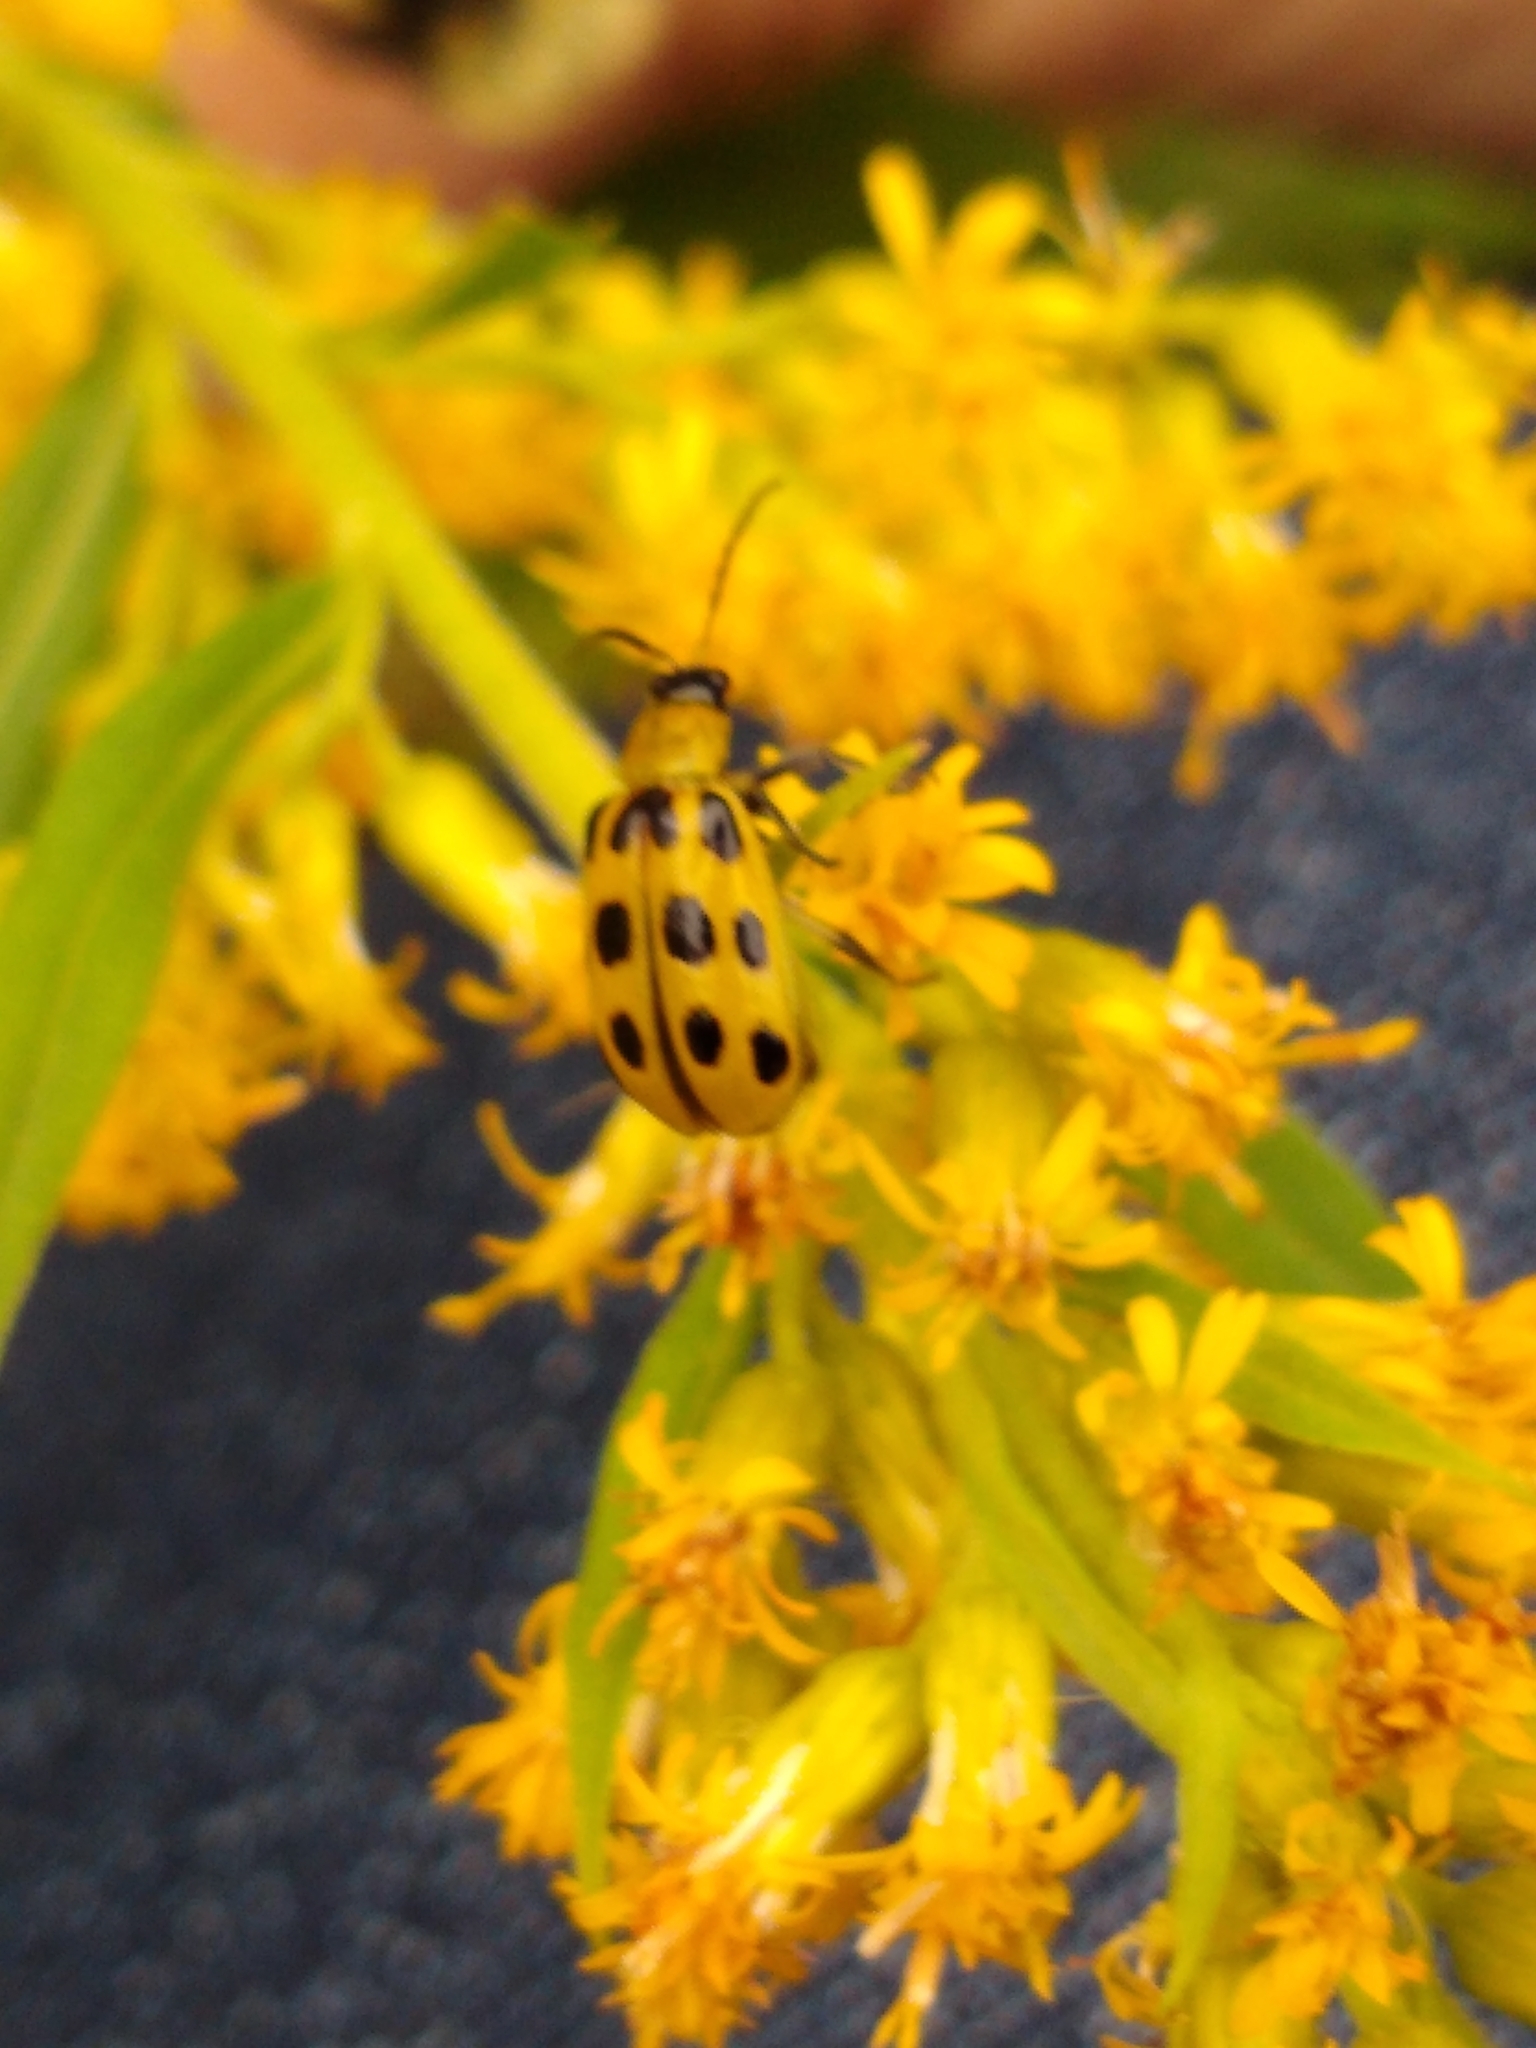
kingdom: Animalia
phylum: Arthropoda
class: Insecta
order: Coleoptera
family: Chrysomelidae
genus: Diabrotica
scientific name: Diabrotica undecimpunctata
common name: Spotted cucumber beetle
